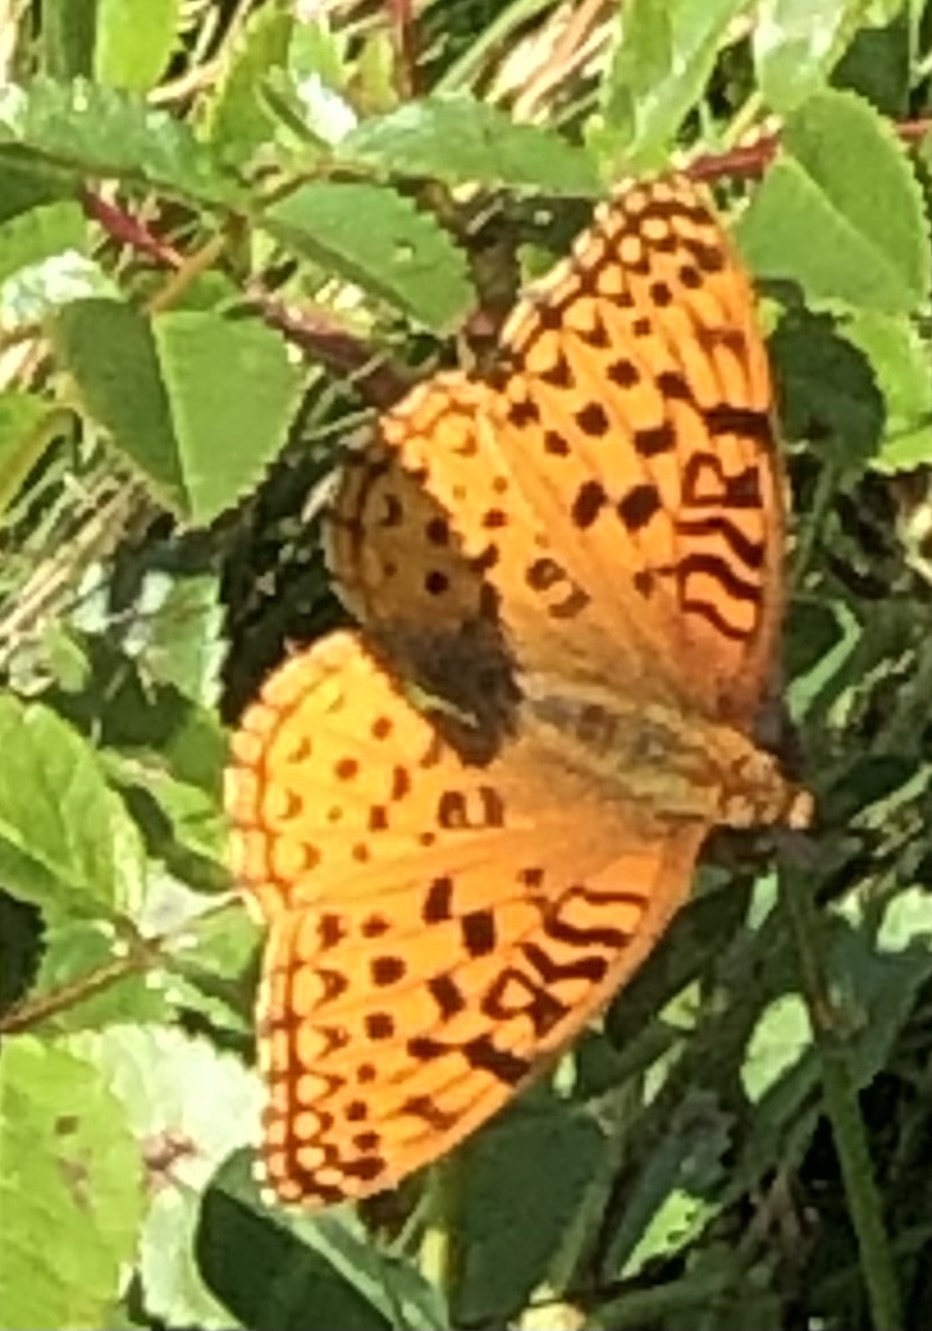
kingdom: Animalia
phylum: Arthropoda
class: Insecta
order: Lepidoptera
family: Nymphalidae
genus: Speyeria
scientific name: Speyeria aphrodite
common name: Aphrodite friitllary
